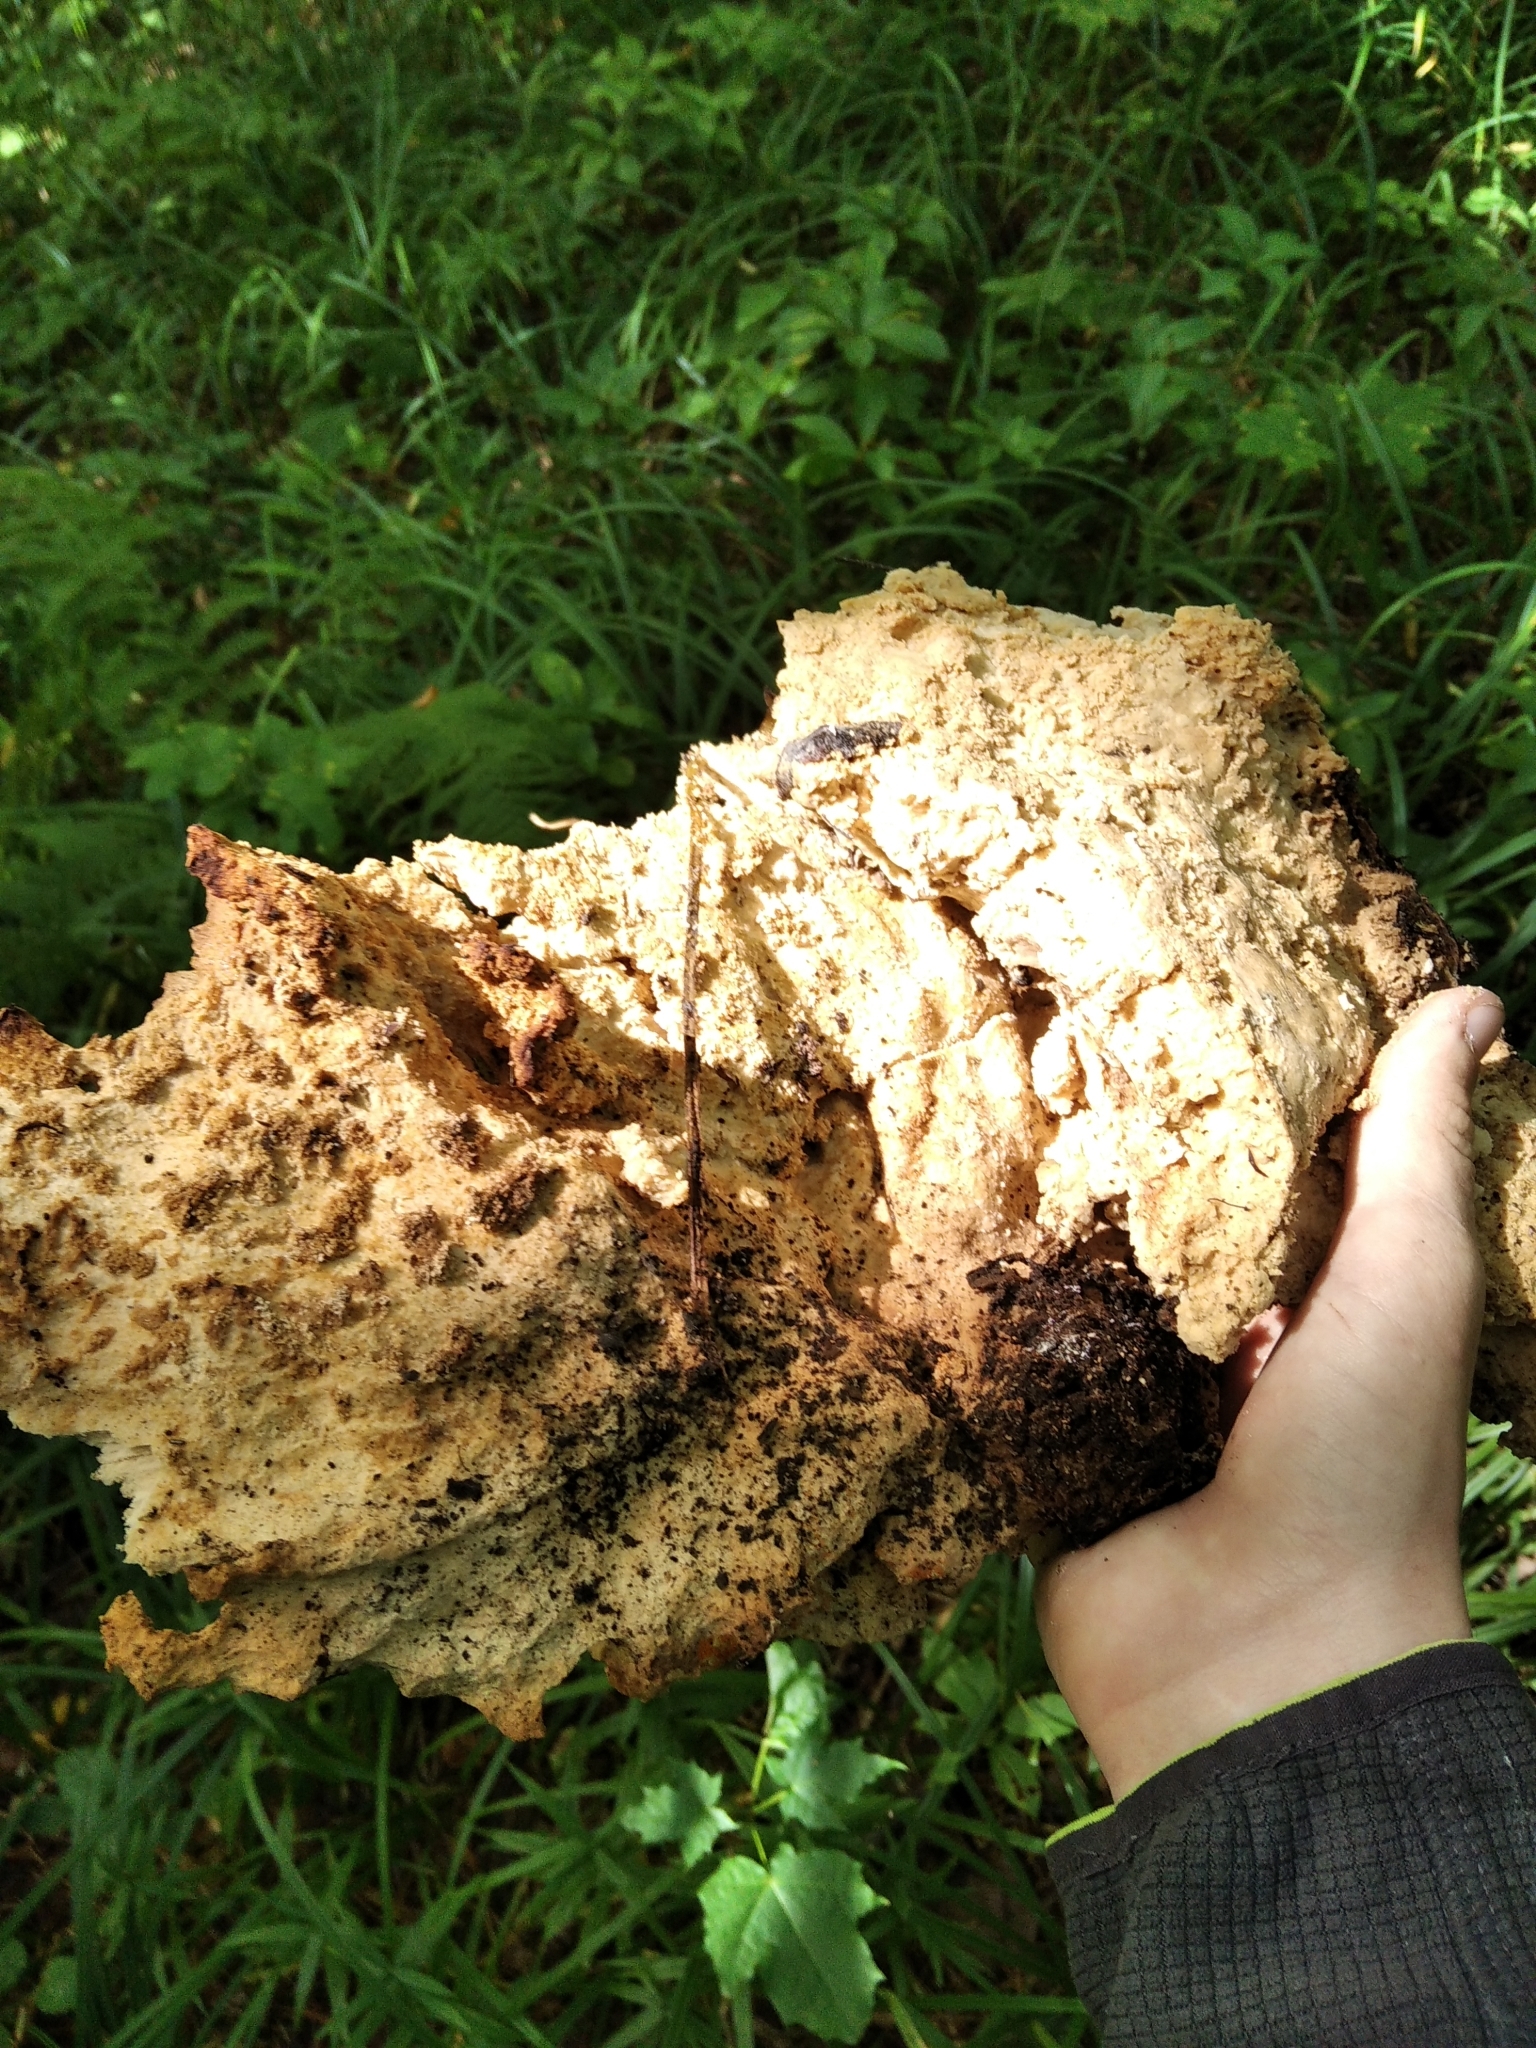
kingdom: Fungi
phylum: Basidiomycota
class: Agaricomycetes
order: Polyporales
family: Laetiporaceae
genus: Laetiporus
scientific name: Laetiporus sulphureus
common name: Chicken of the woods
